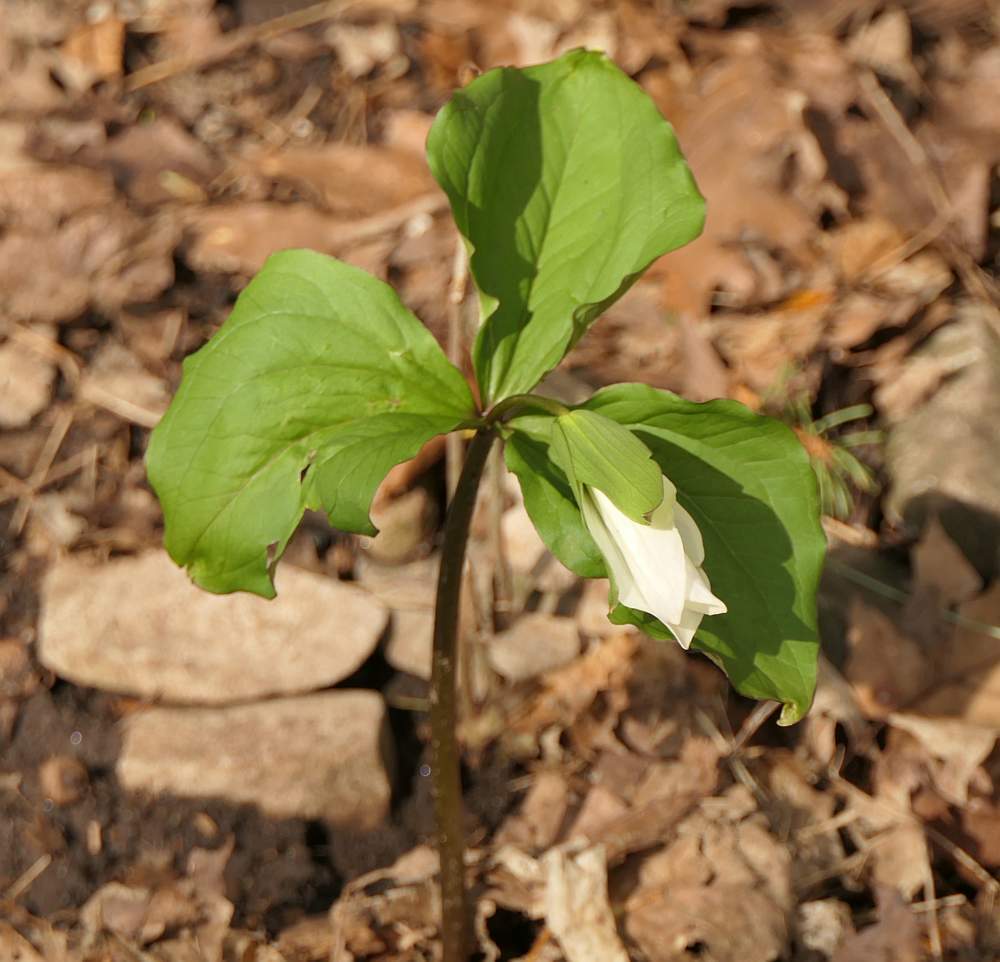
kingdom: Plantae
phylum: Tracheophyta
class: Liliopsida
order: Liliales
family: Melanthiaceae
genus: Trillium
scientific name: Trillium grandiflorum
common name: Great white trillium
